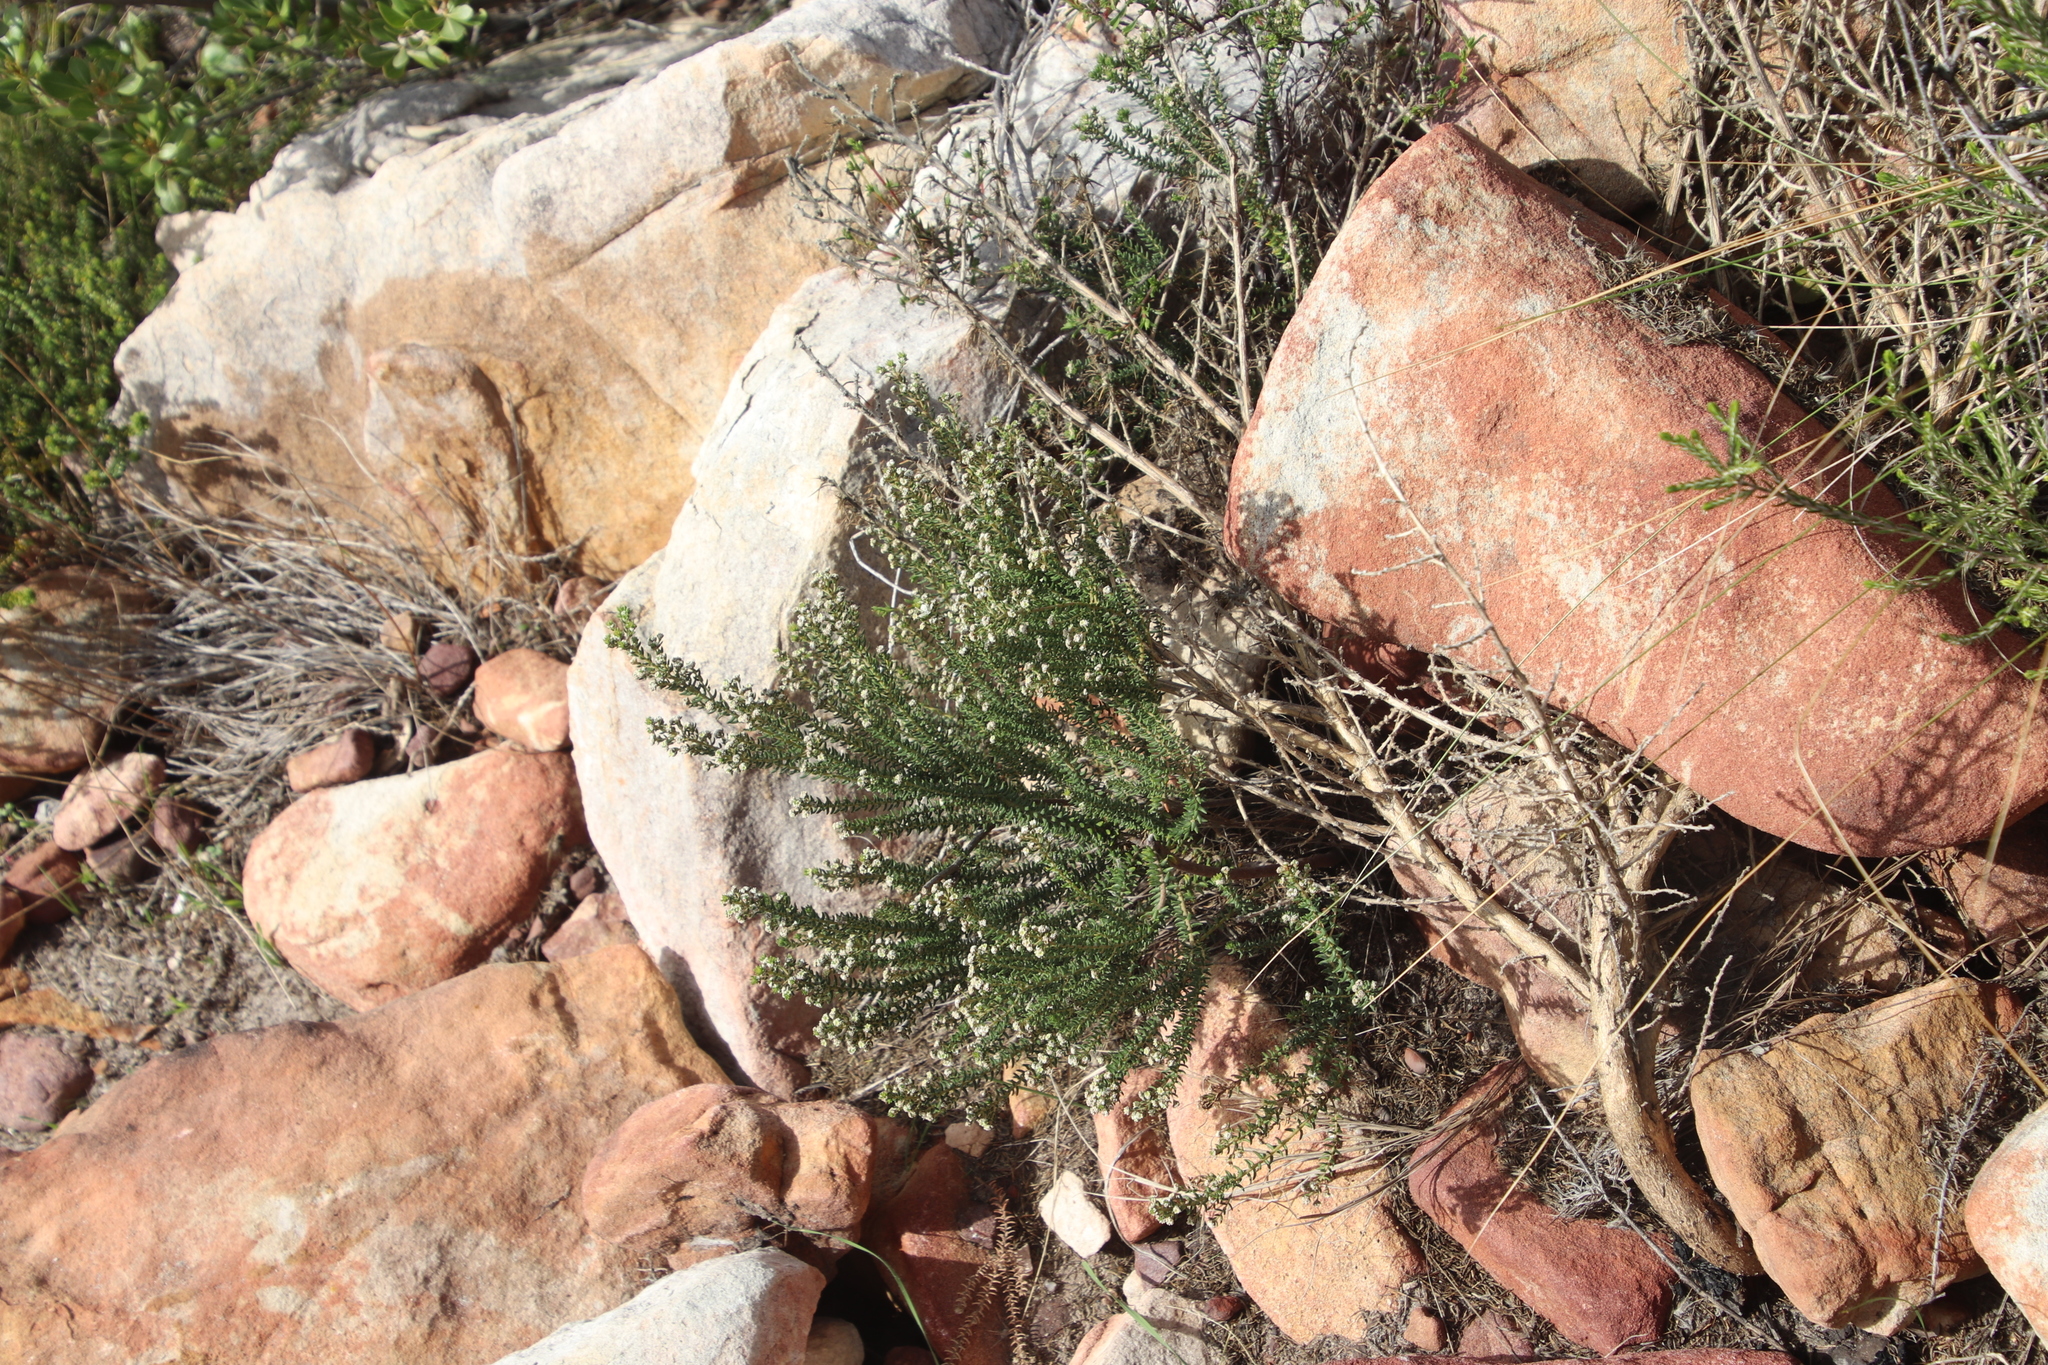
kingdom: Plantae
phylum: Tracheophyta
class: Magnoliopsida
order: Rosales
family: Rhamnaceae
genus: Phylica
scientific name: Phylica parviflora
